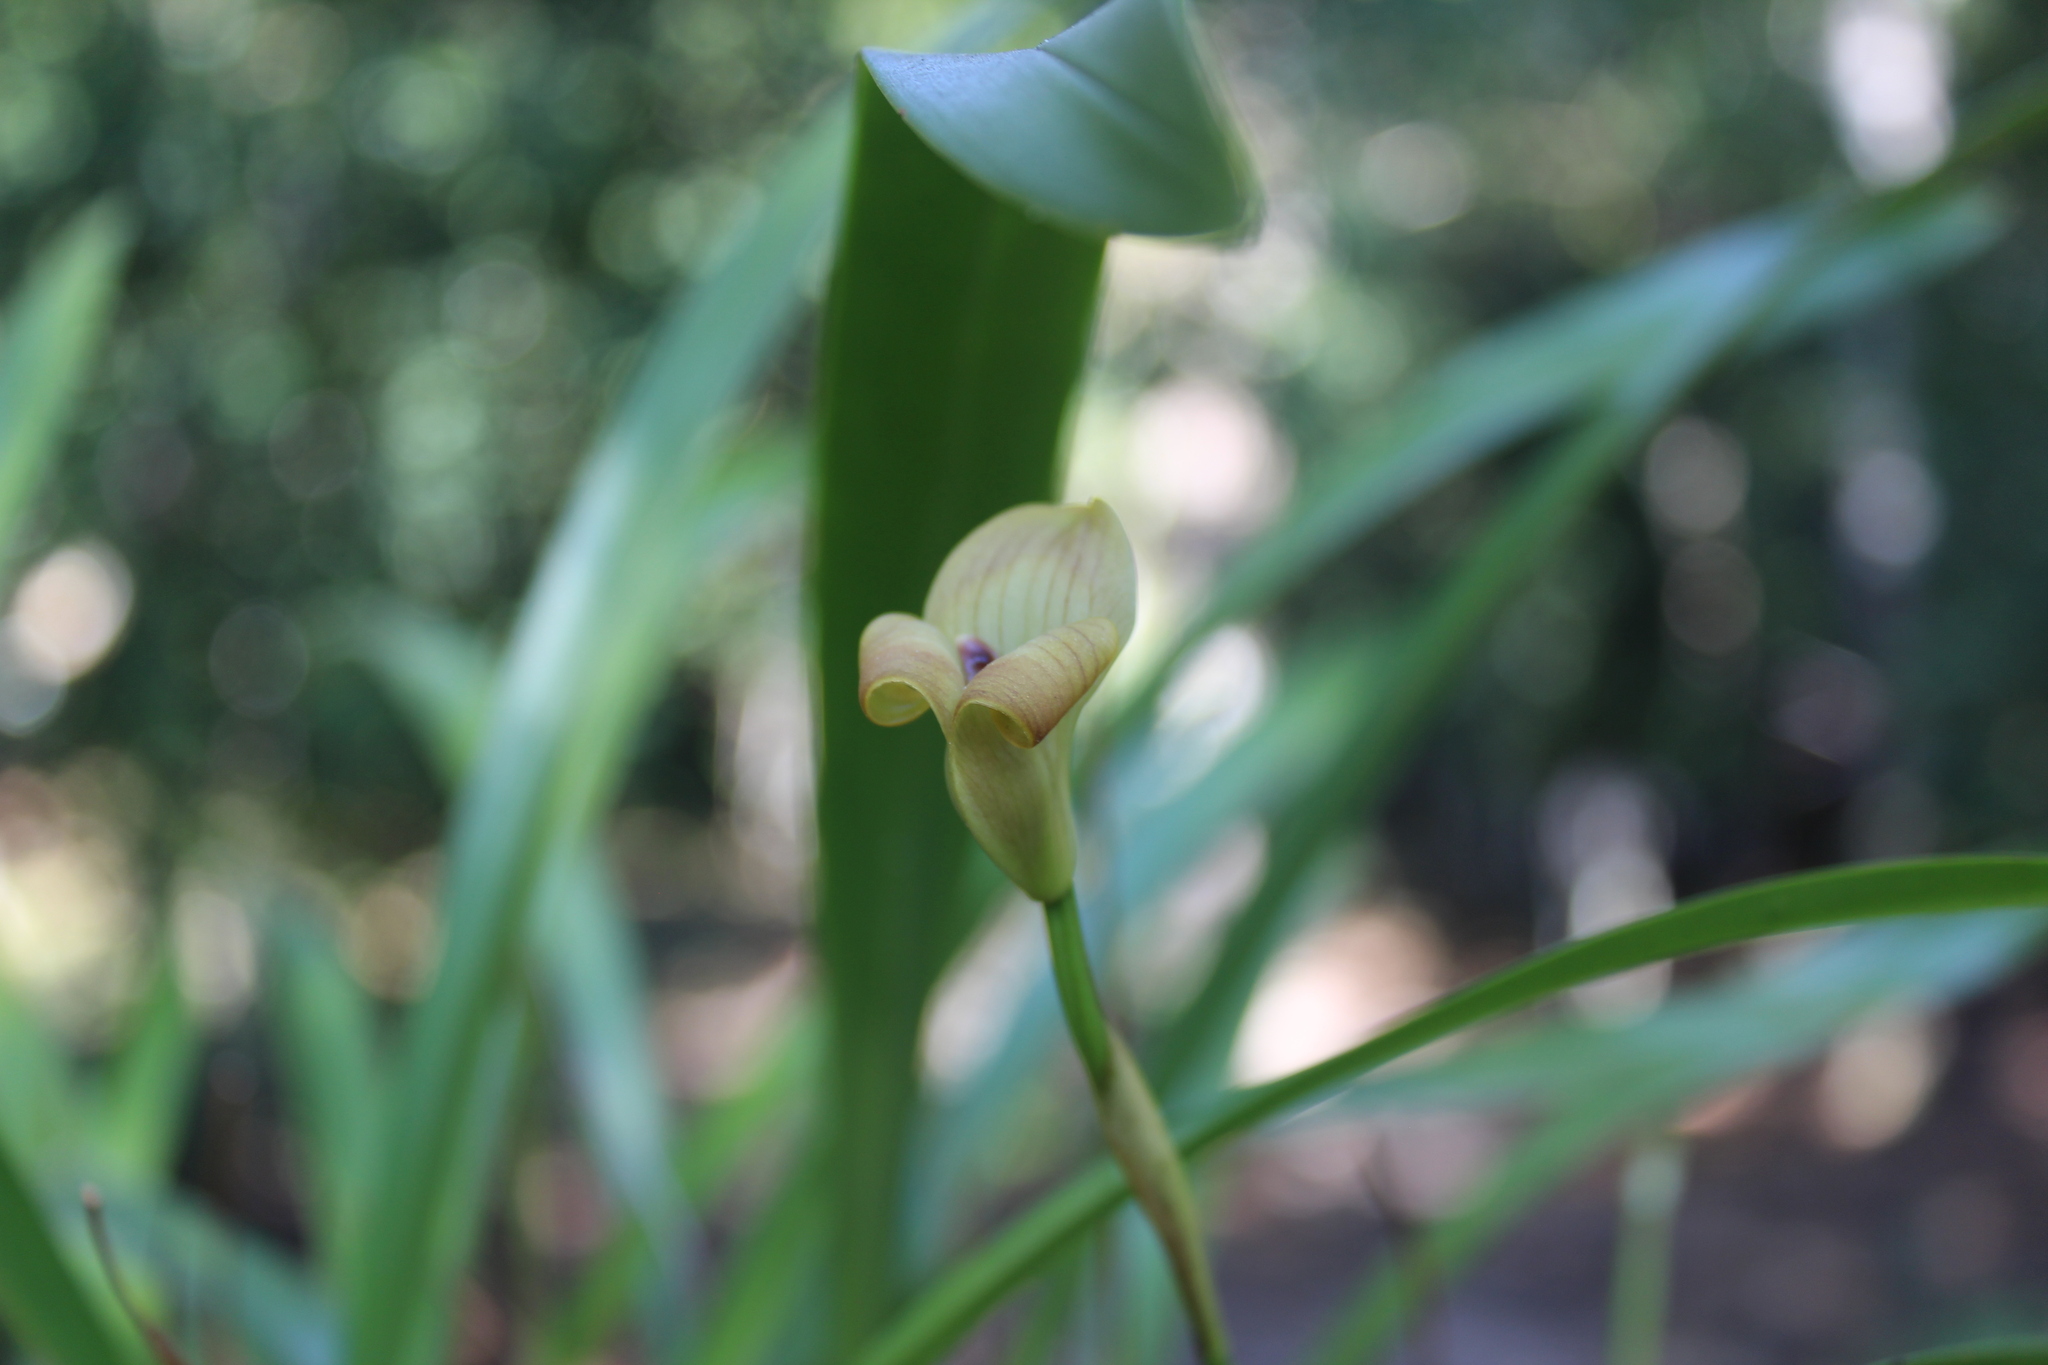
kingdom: Plantae
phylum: Tracheophyta
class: Liliopsida
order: Asparagales
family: Orchidaceae
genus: Maxillaria
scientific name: Maxillaria egertoniana
